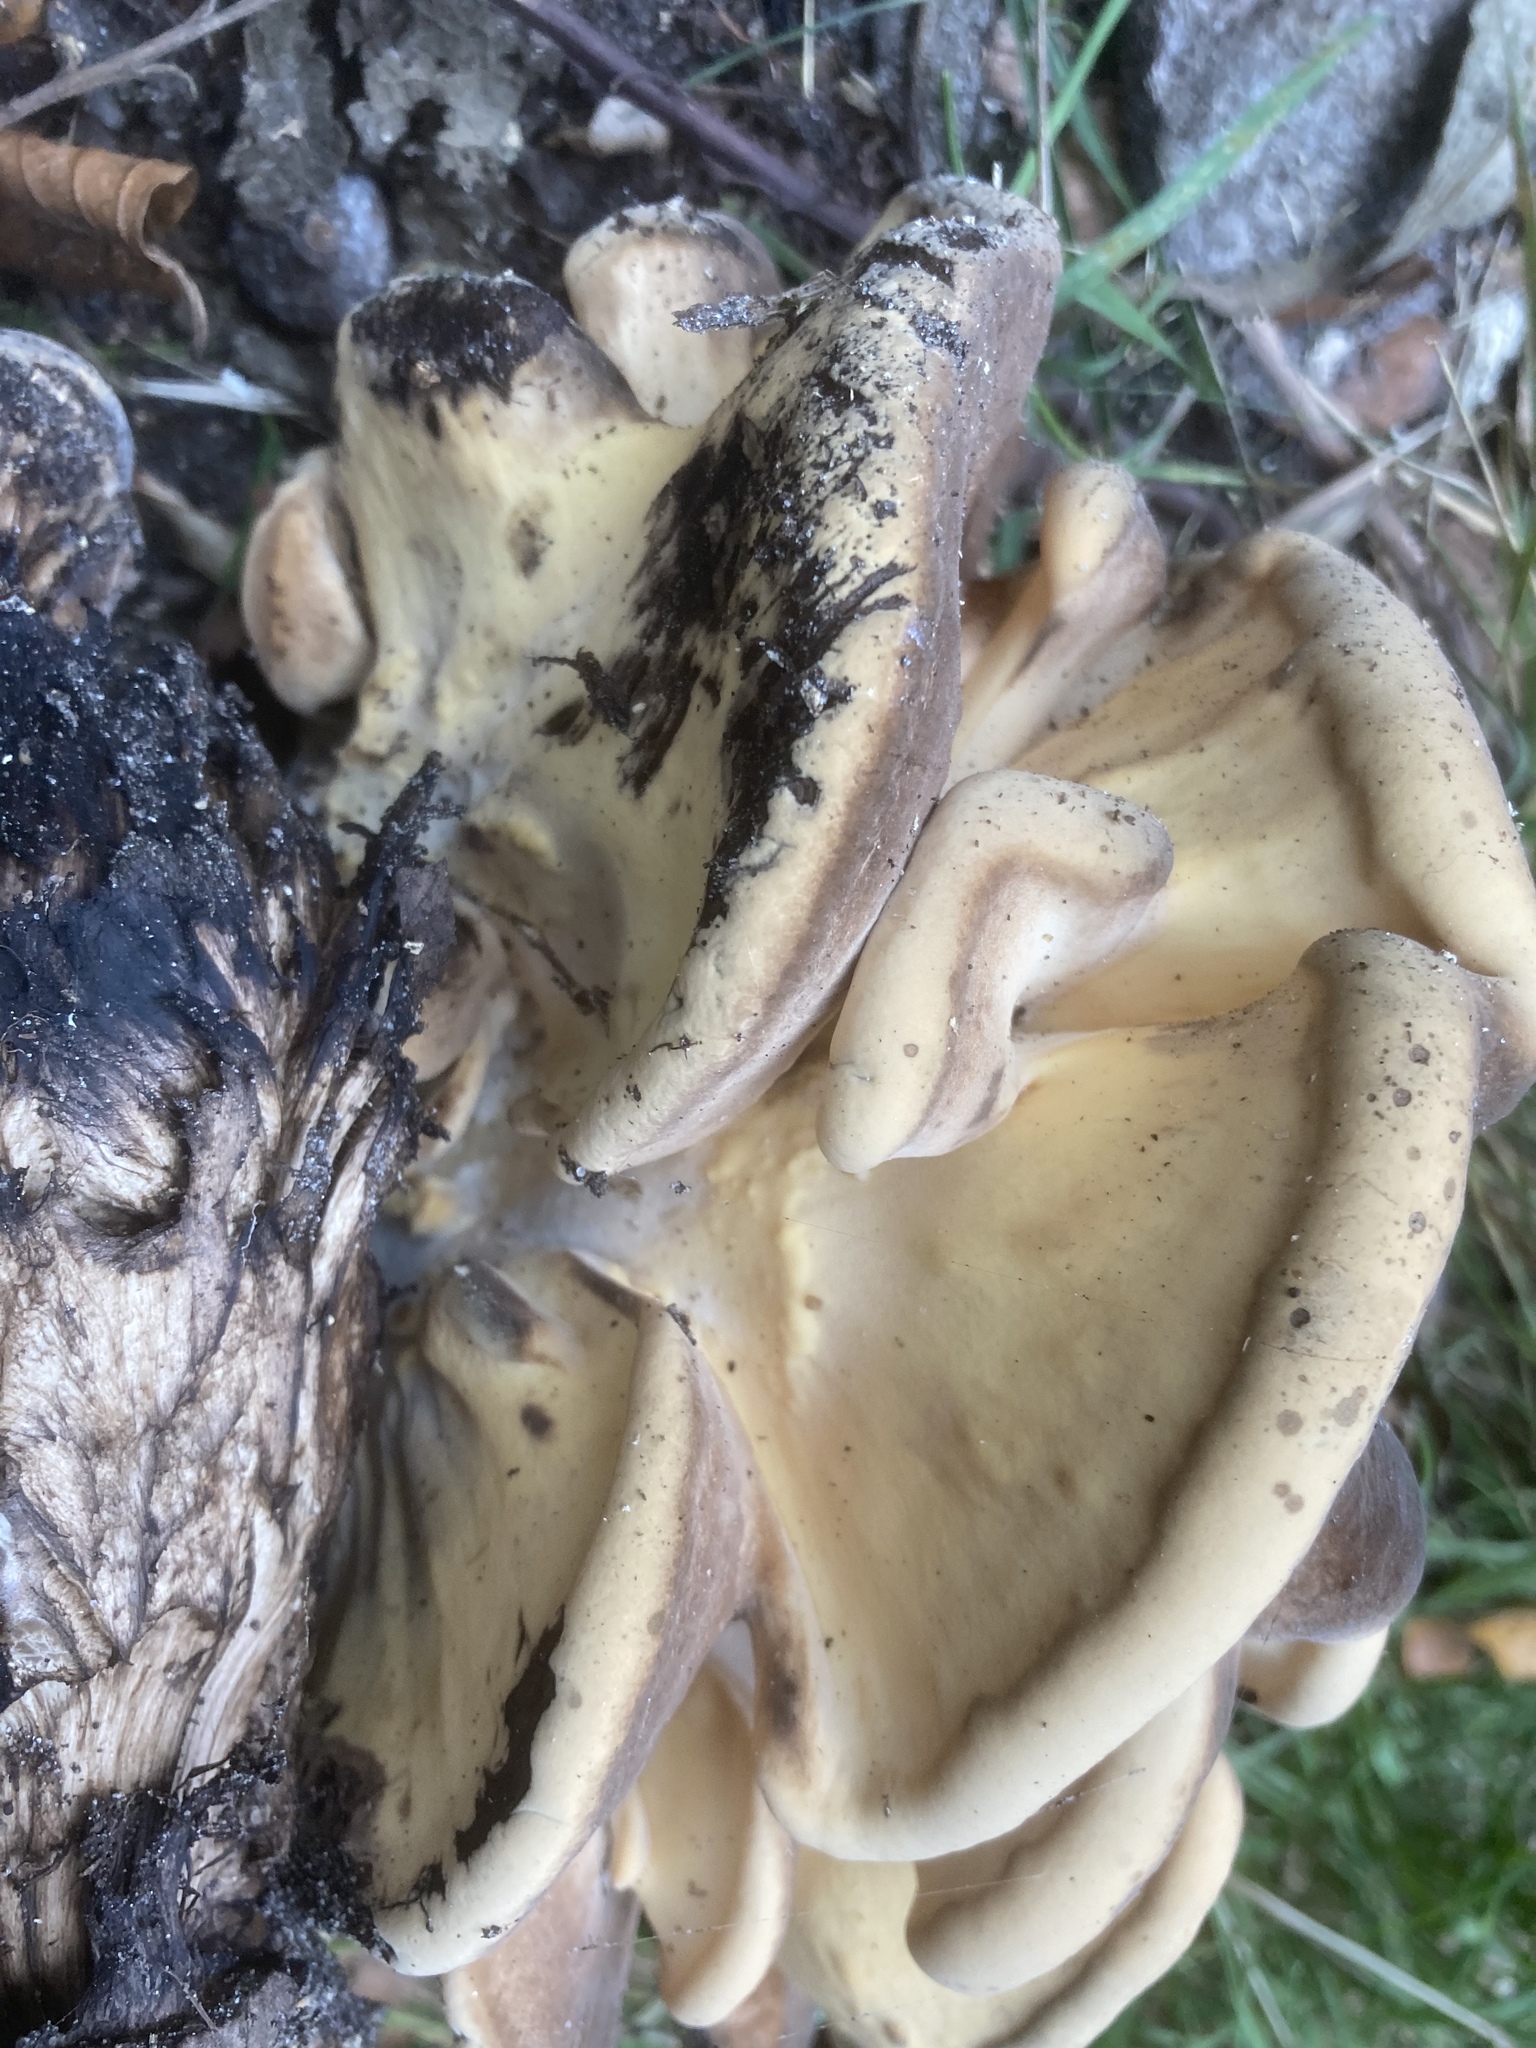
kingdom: Fungi
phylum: Basidiomycota
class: Agaricomycetes
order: Polyporales
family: Meripilaceae
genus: Meripilus
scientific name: Meripilus giganteus
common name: Giant polypore
